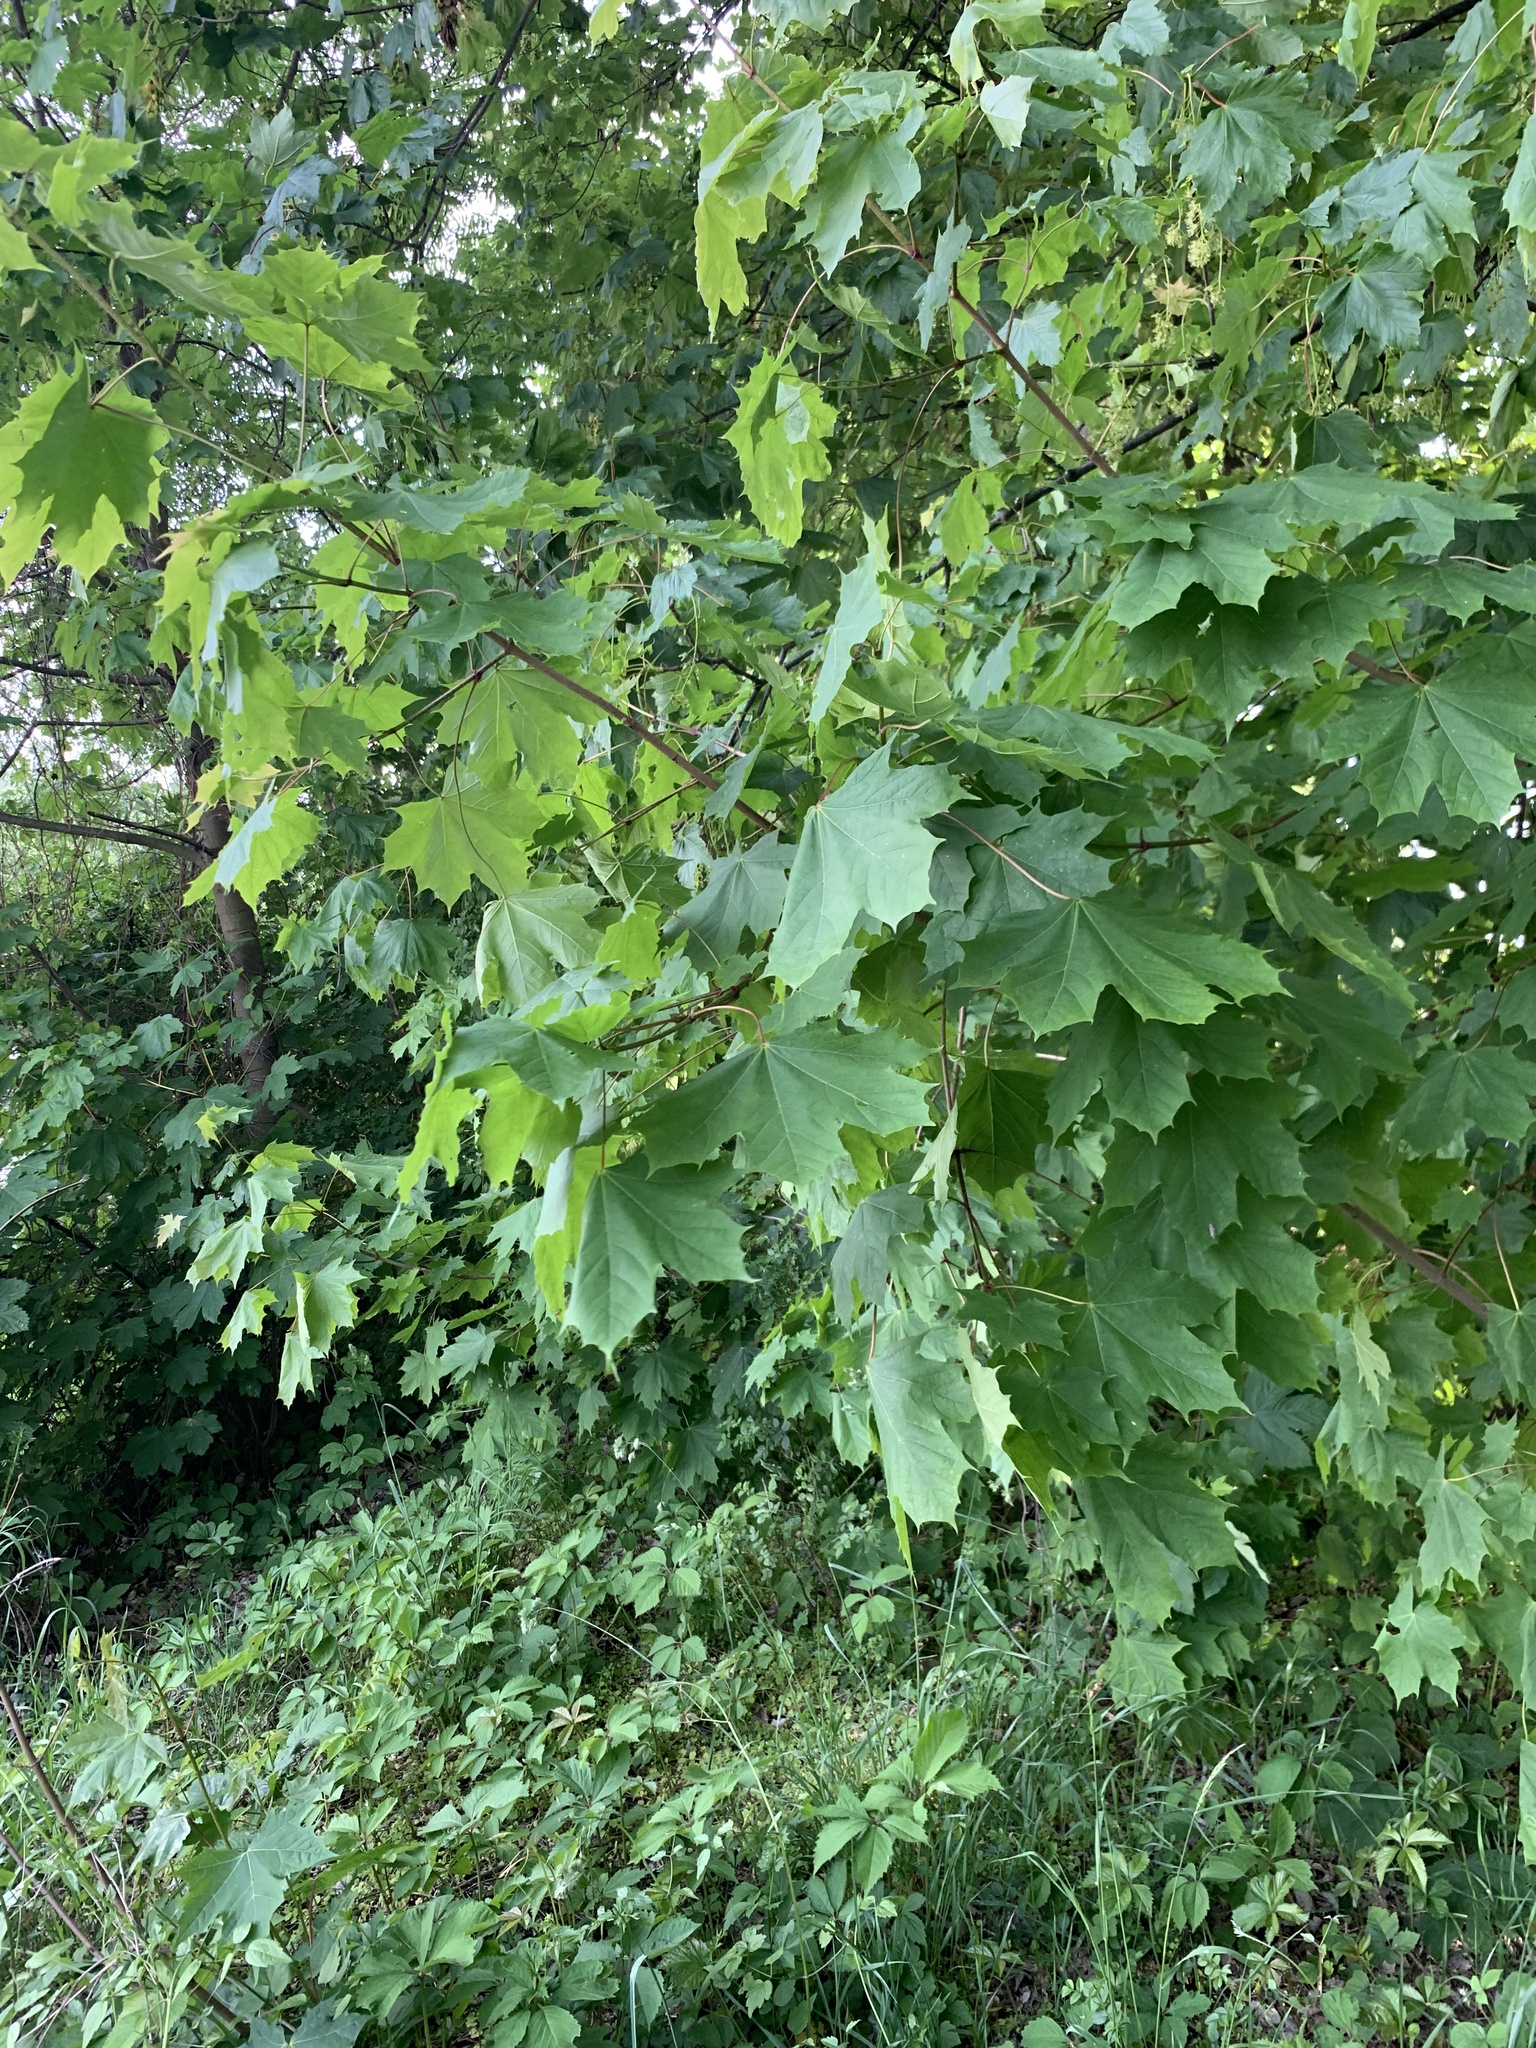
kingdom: Plantae
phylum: Tracheophyta
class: Magnoliopsida
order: Sapindales
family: Sapindaceae
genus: Acer
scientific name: Acer platanoides
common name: Norway maple
